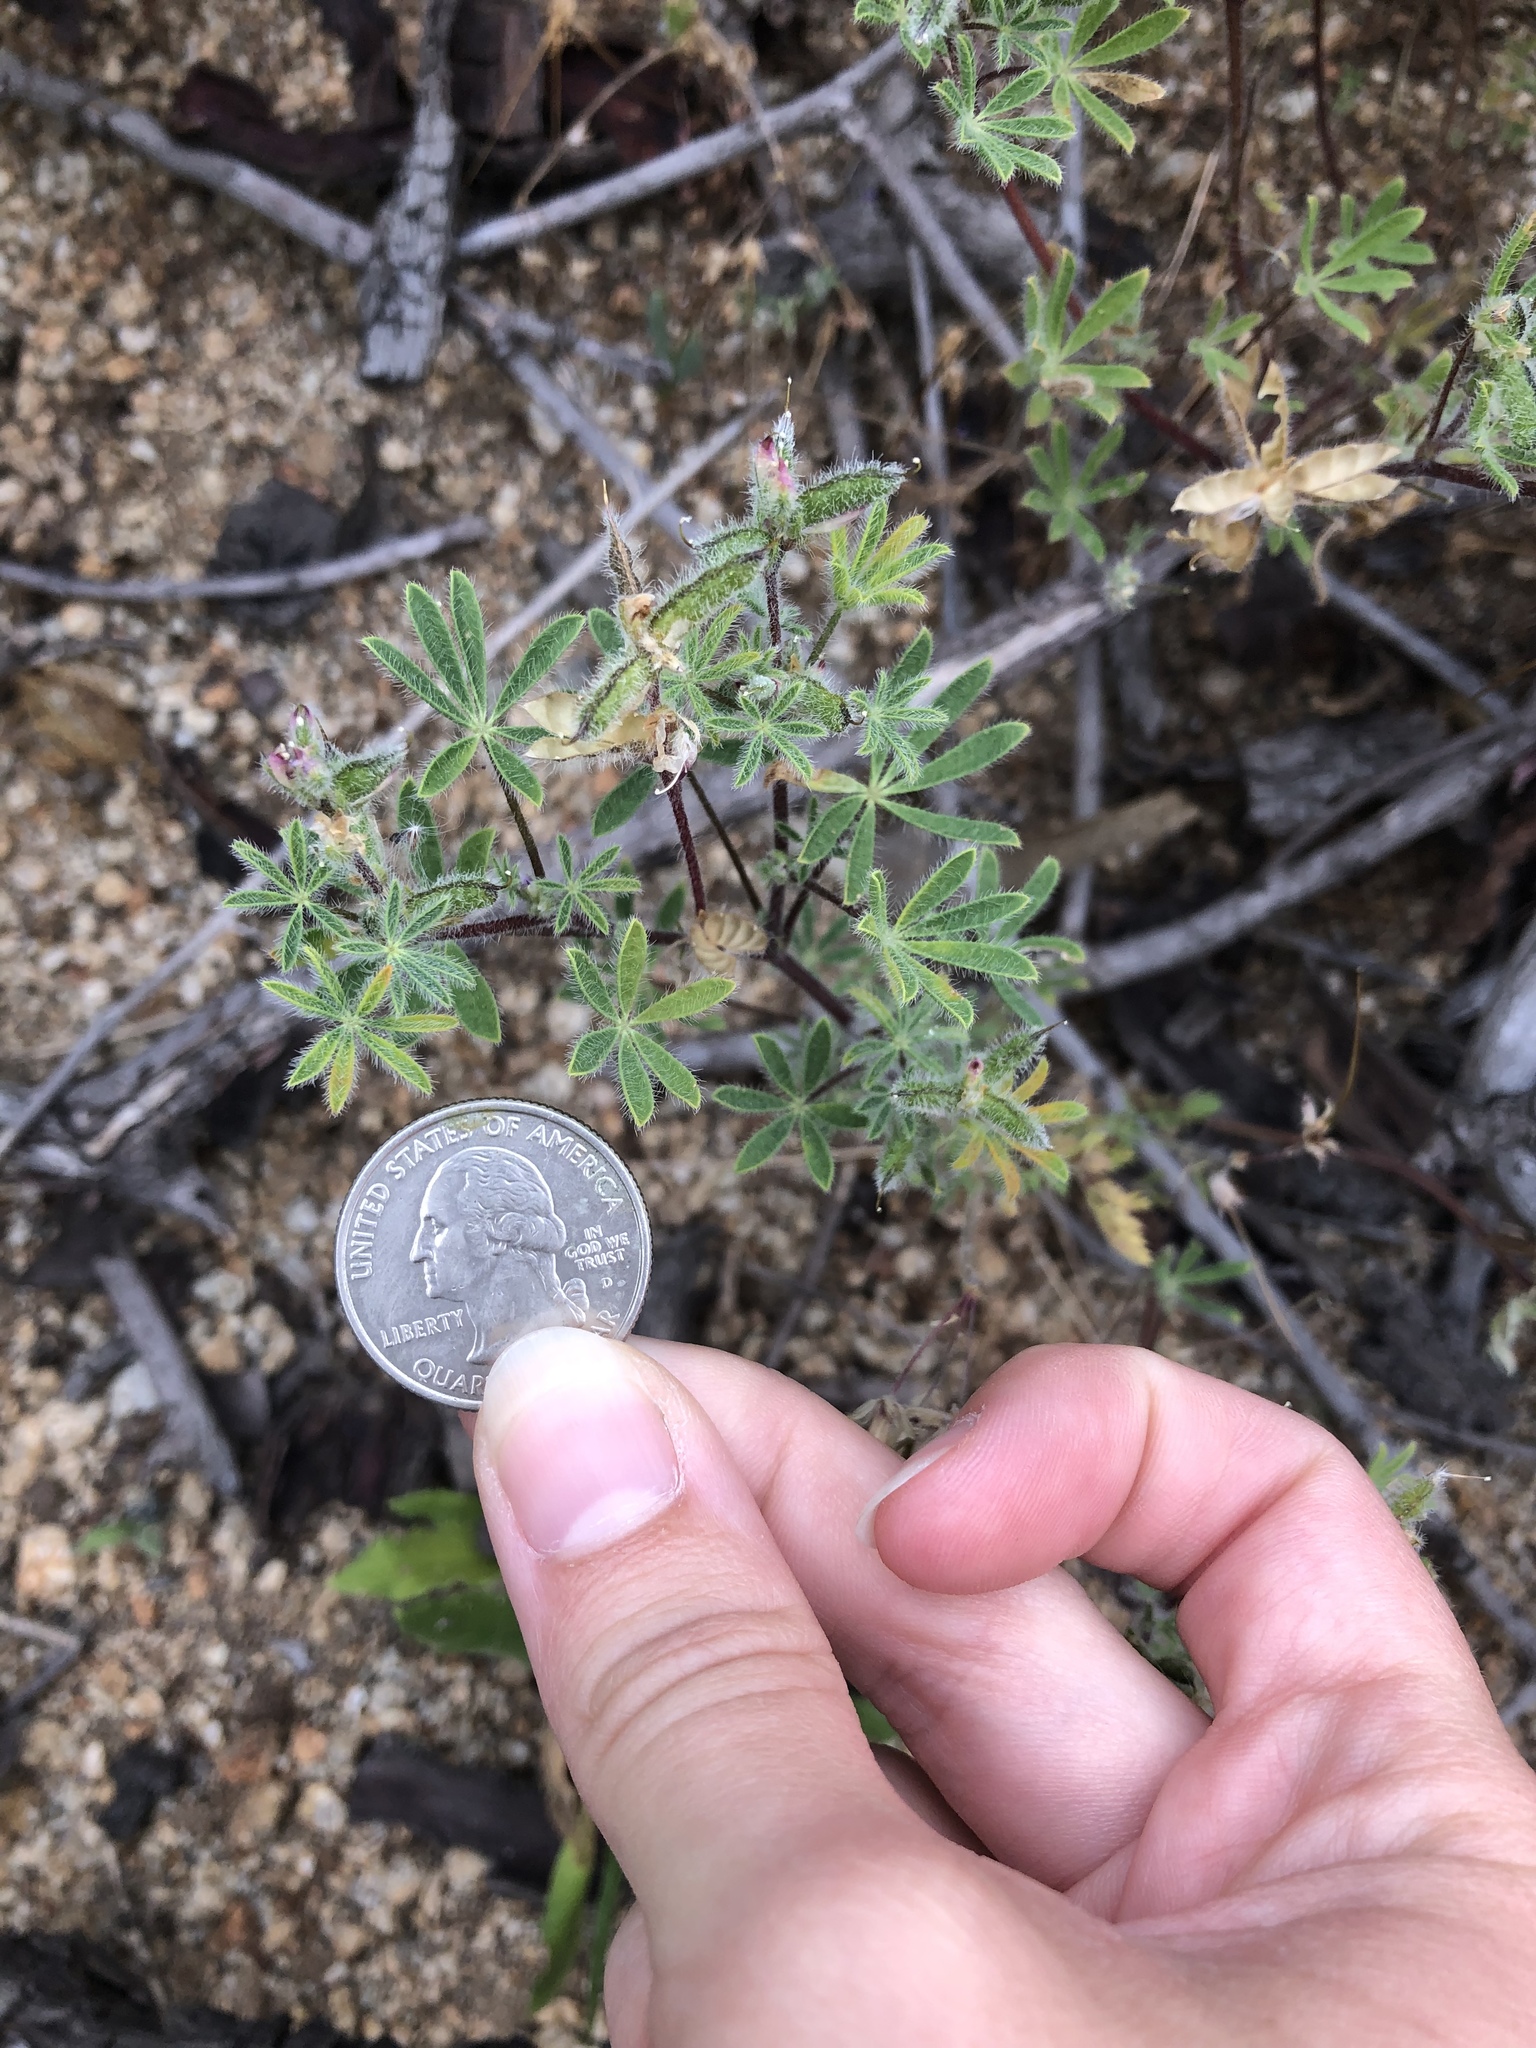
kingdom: Plantae
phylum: Tracheophyta
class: Magnoliopsida
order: Fabales
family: Fabaceae
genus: Lupinus
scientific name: Lupinus bicolor
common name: Miniature lupine
